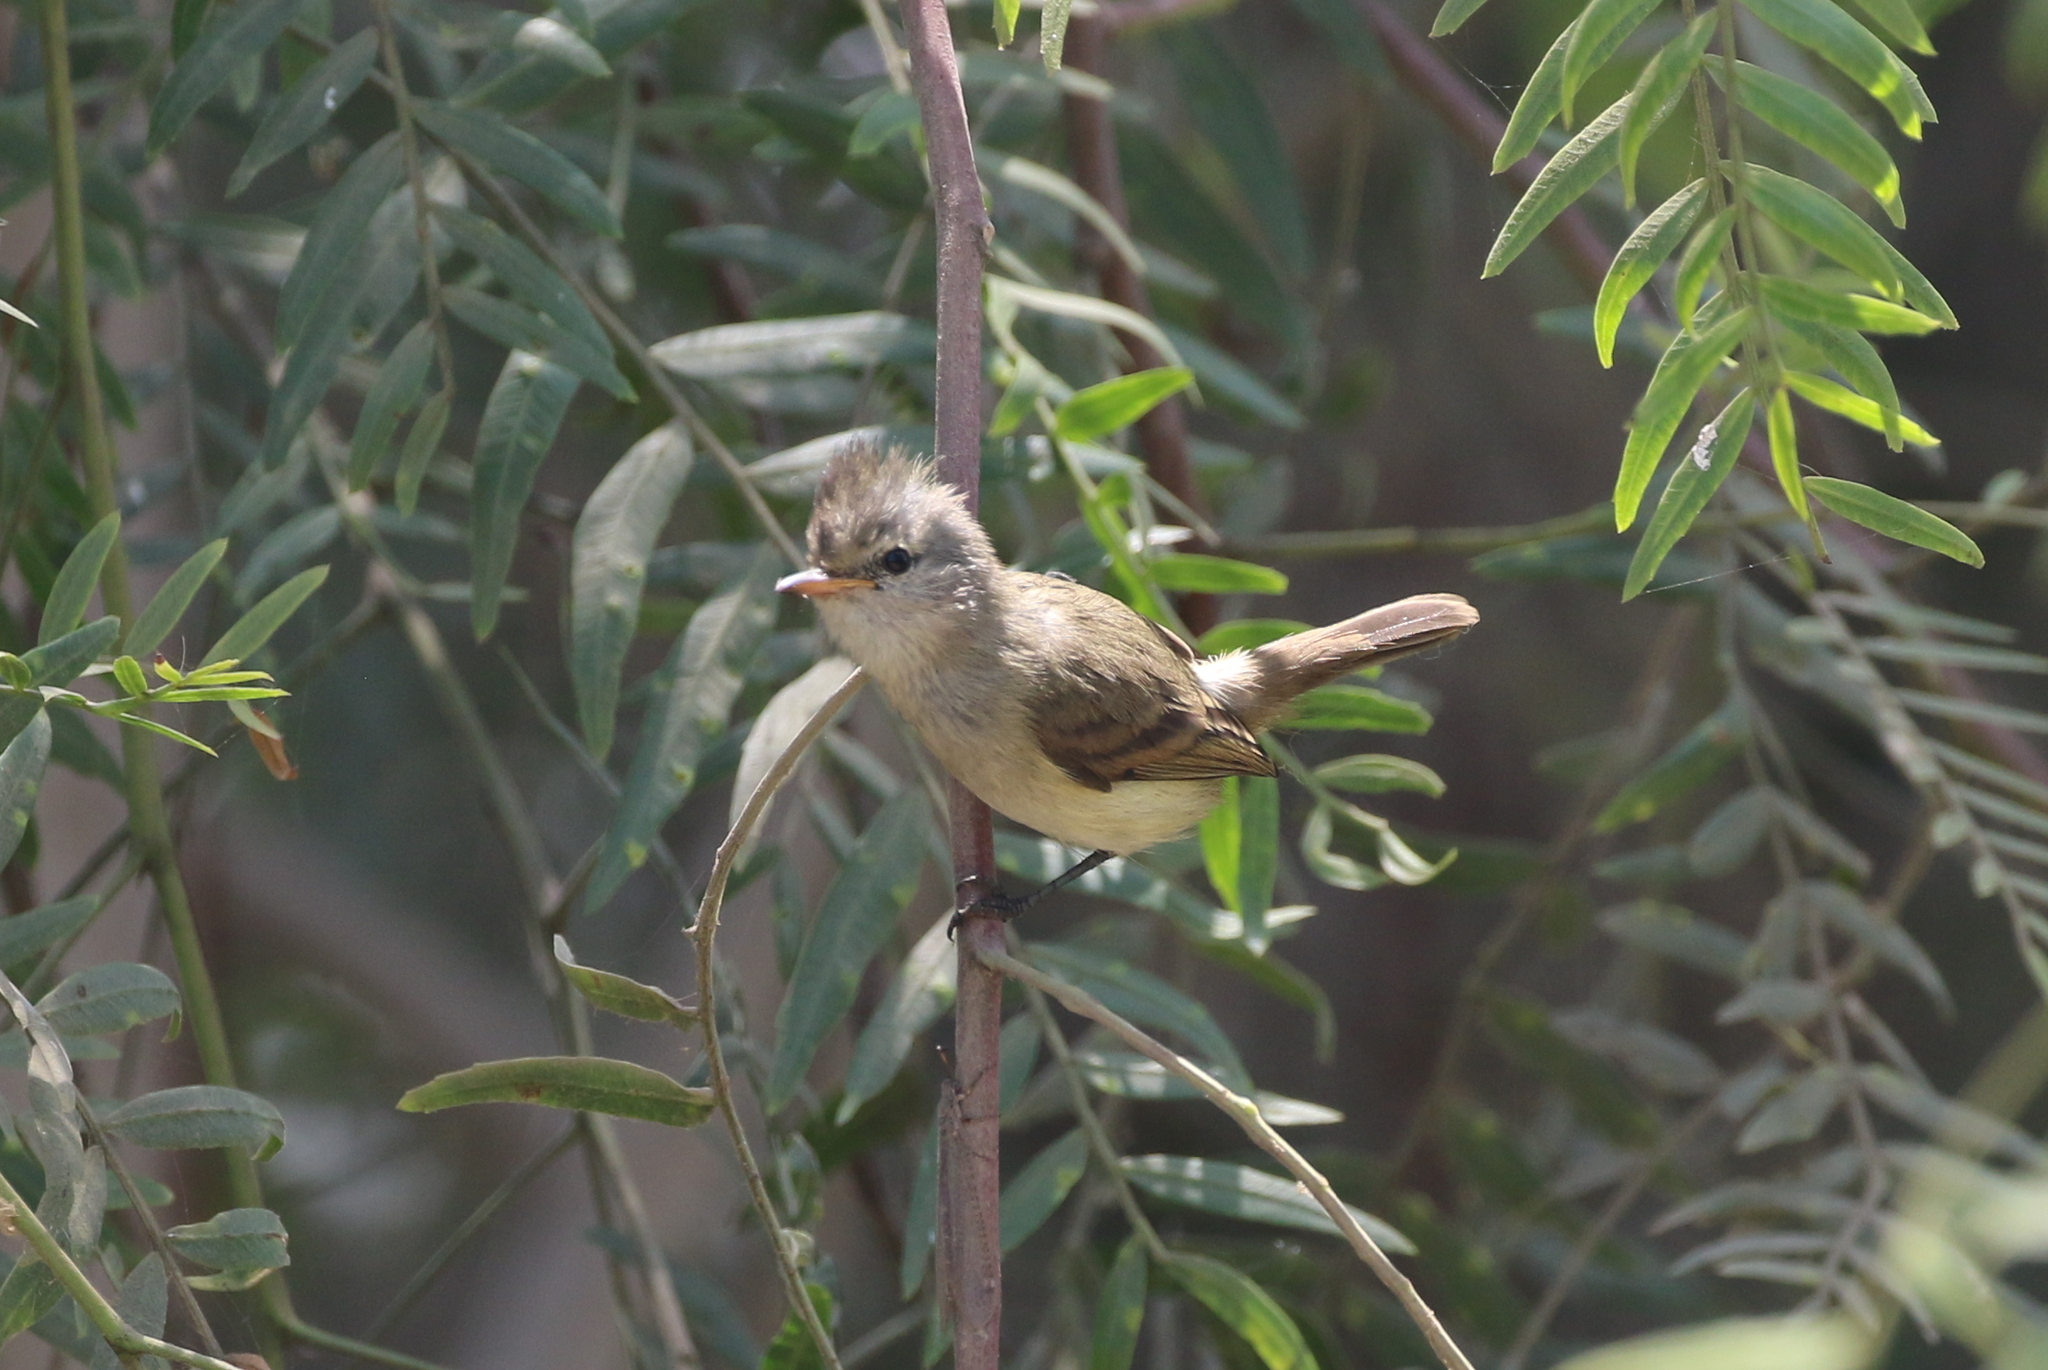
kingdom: Animalia
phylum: Chordata
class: Aves
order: Passeriformes
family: Tyrannidae
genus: Camptostoma
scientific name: Camptostoma obsoletum
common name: Southern beardless-tyrannulet
